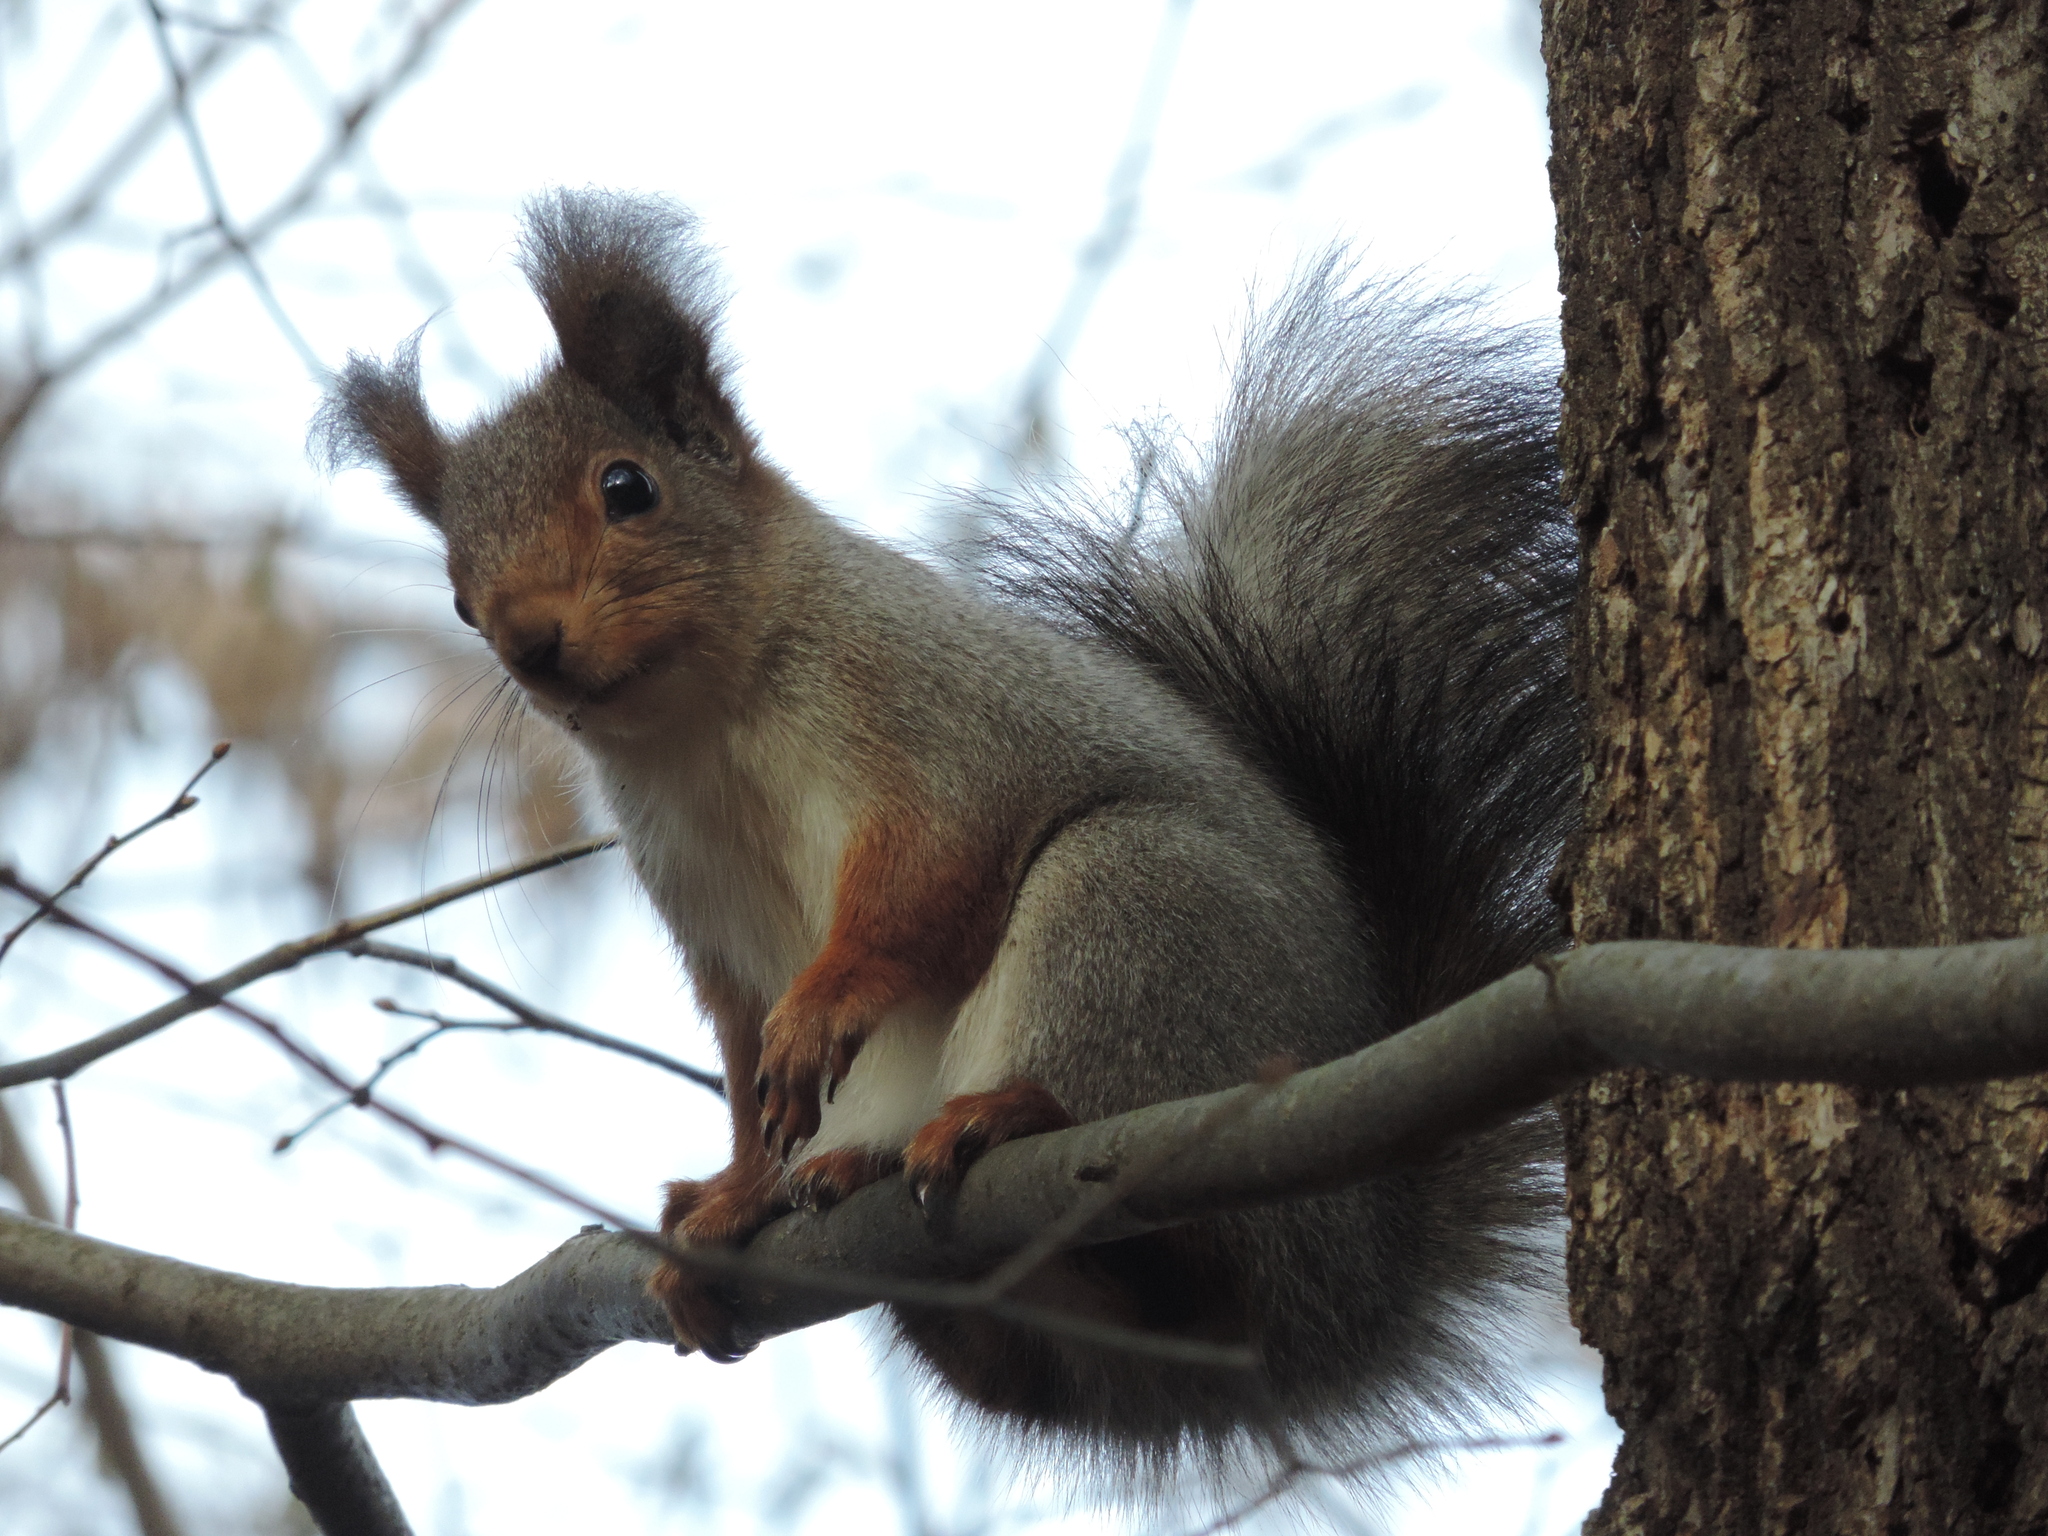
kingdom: Animalia
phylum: Chordata
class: Mammalia
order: Rodentia
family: Sciuridae
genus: Sciurus
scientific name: Sciurus vulgaris
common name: Eurasian red squirrel
